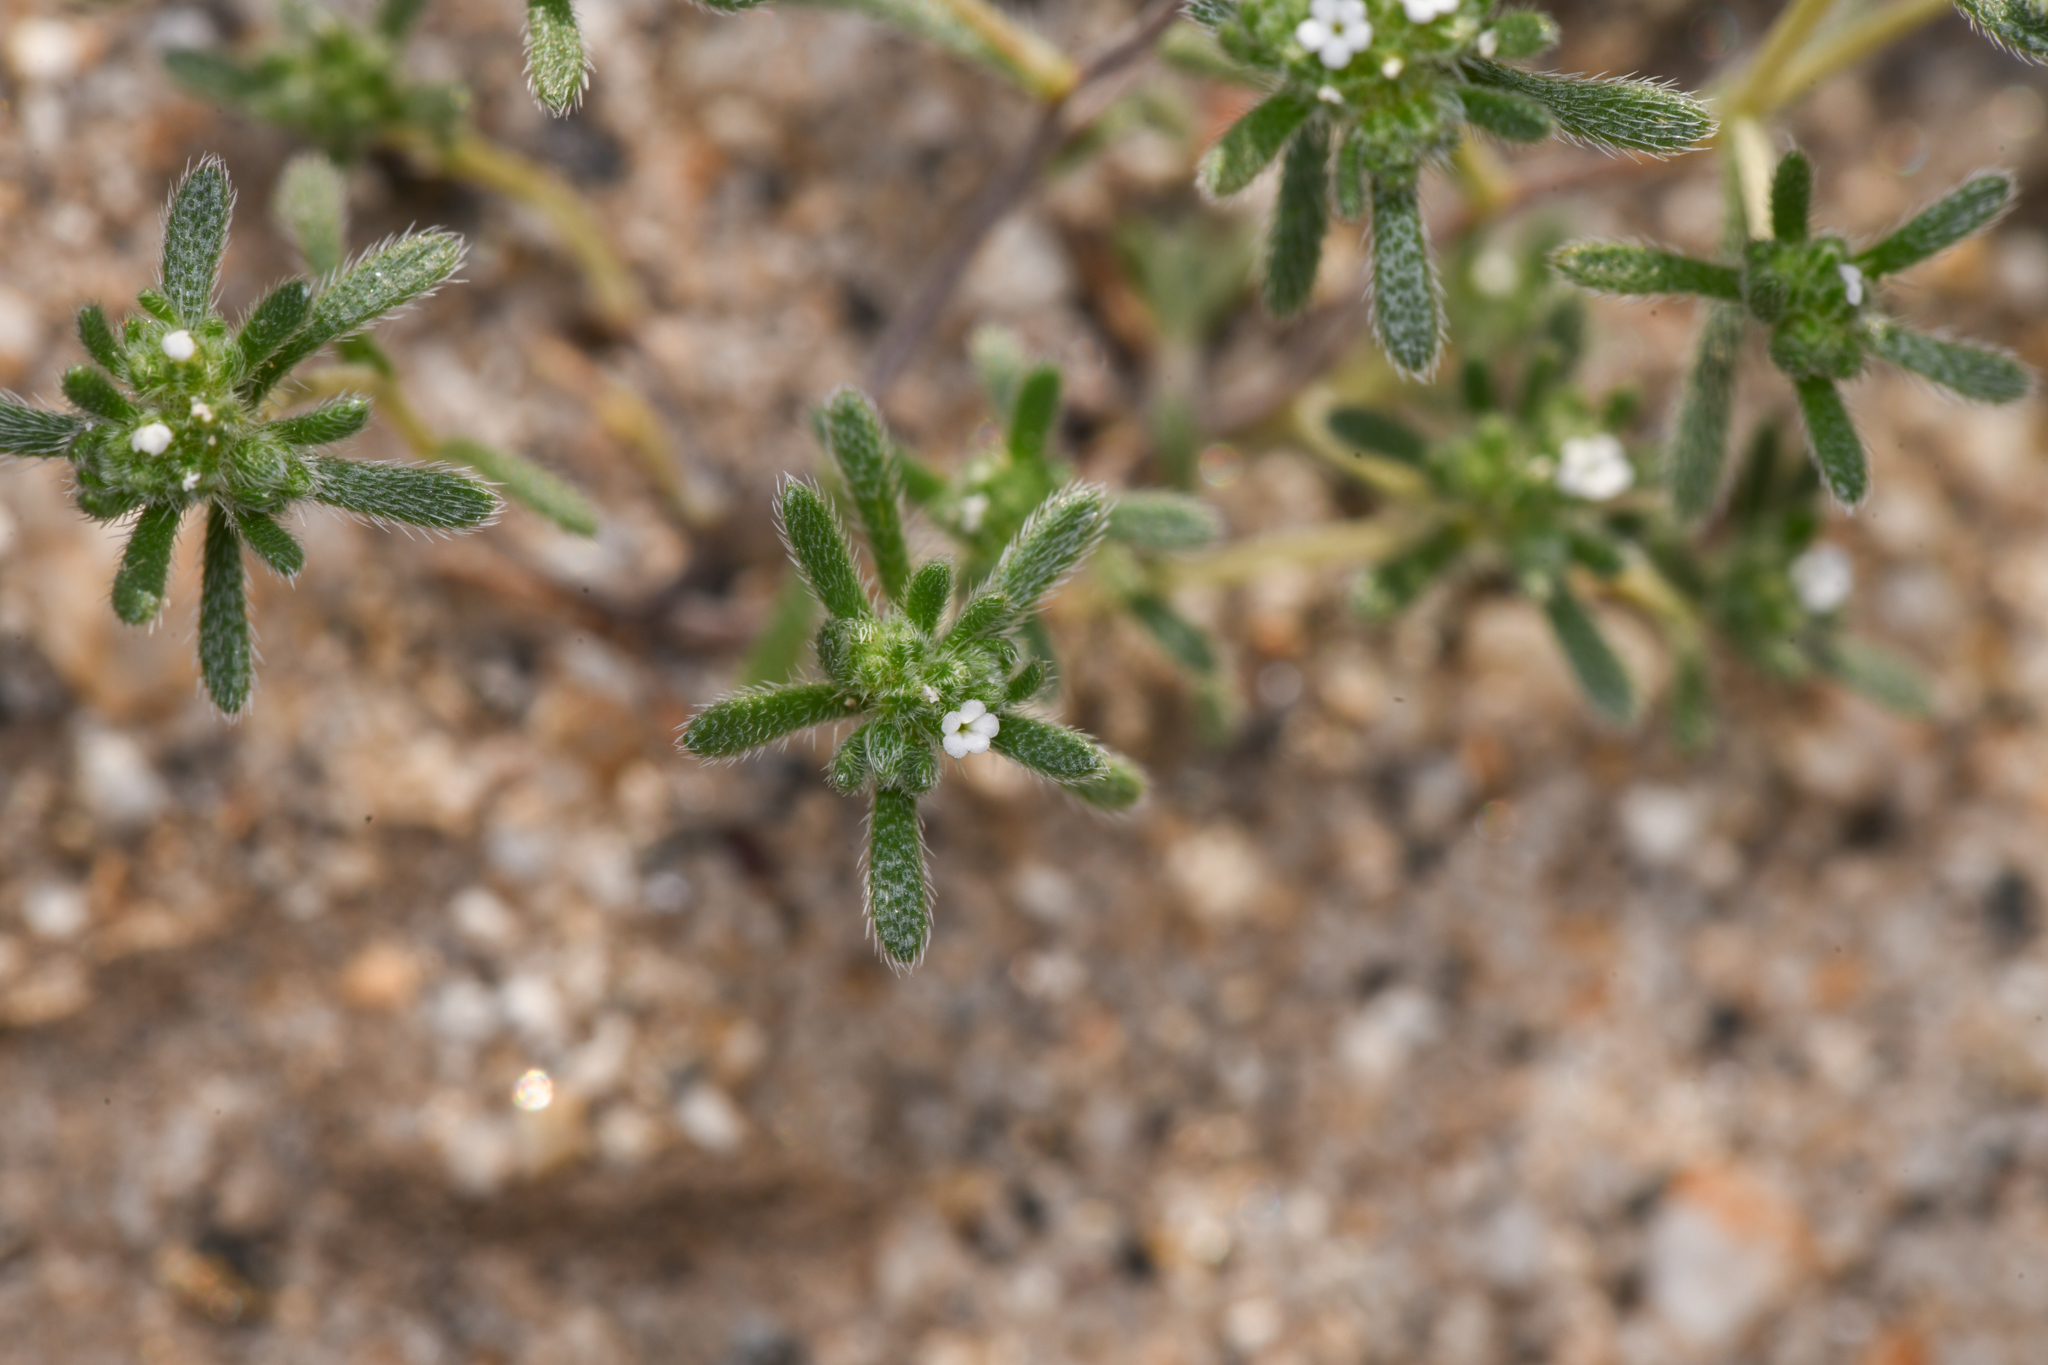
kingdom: Plantae
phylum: Tracheophyta
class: Magnoliopsida
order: Boraginales
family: Boraginaceae
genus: Eremocarya
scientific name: Eremocarya micrantha
